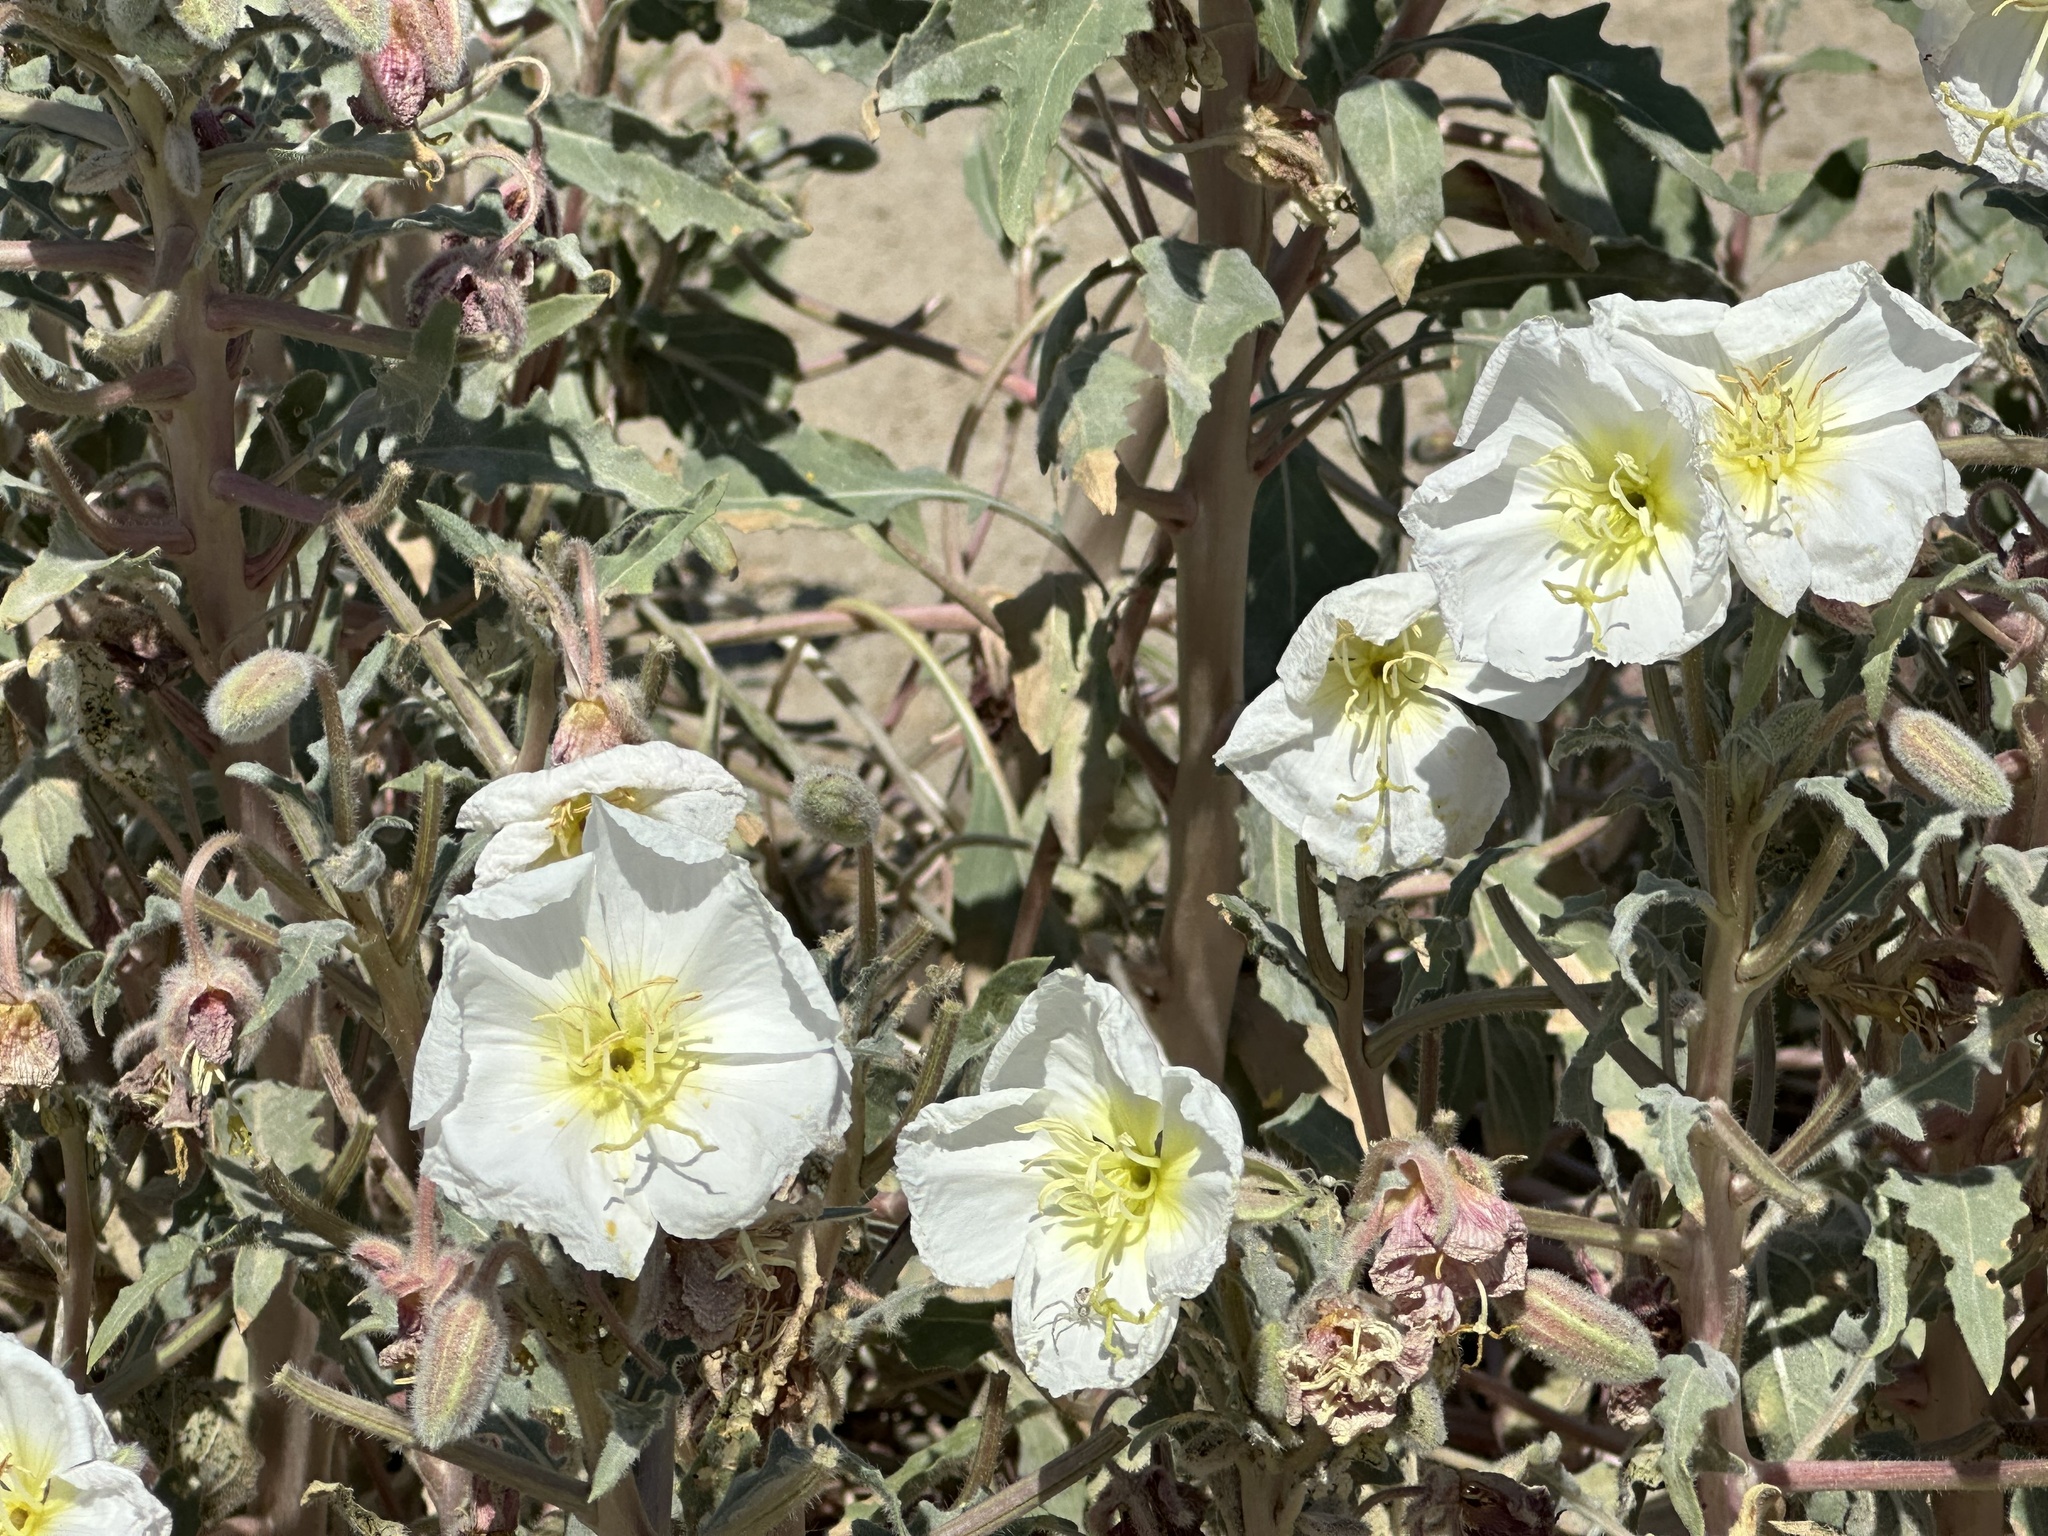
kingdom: Plantae
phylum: Tracheophyta
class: Magnoliopsida
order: Myrtales
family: Onagraceae
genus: Oenothera
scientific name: Oenothera deltoides
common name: Basket evening-primrose
